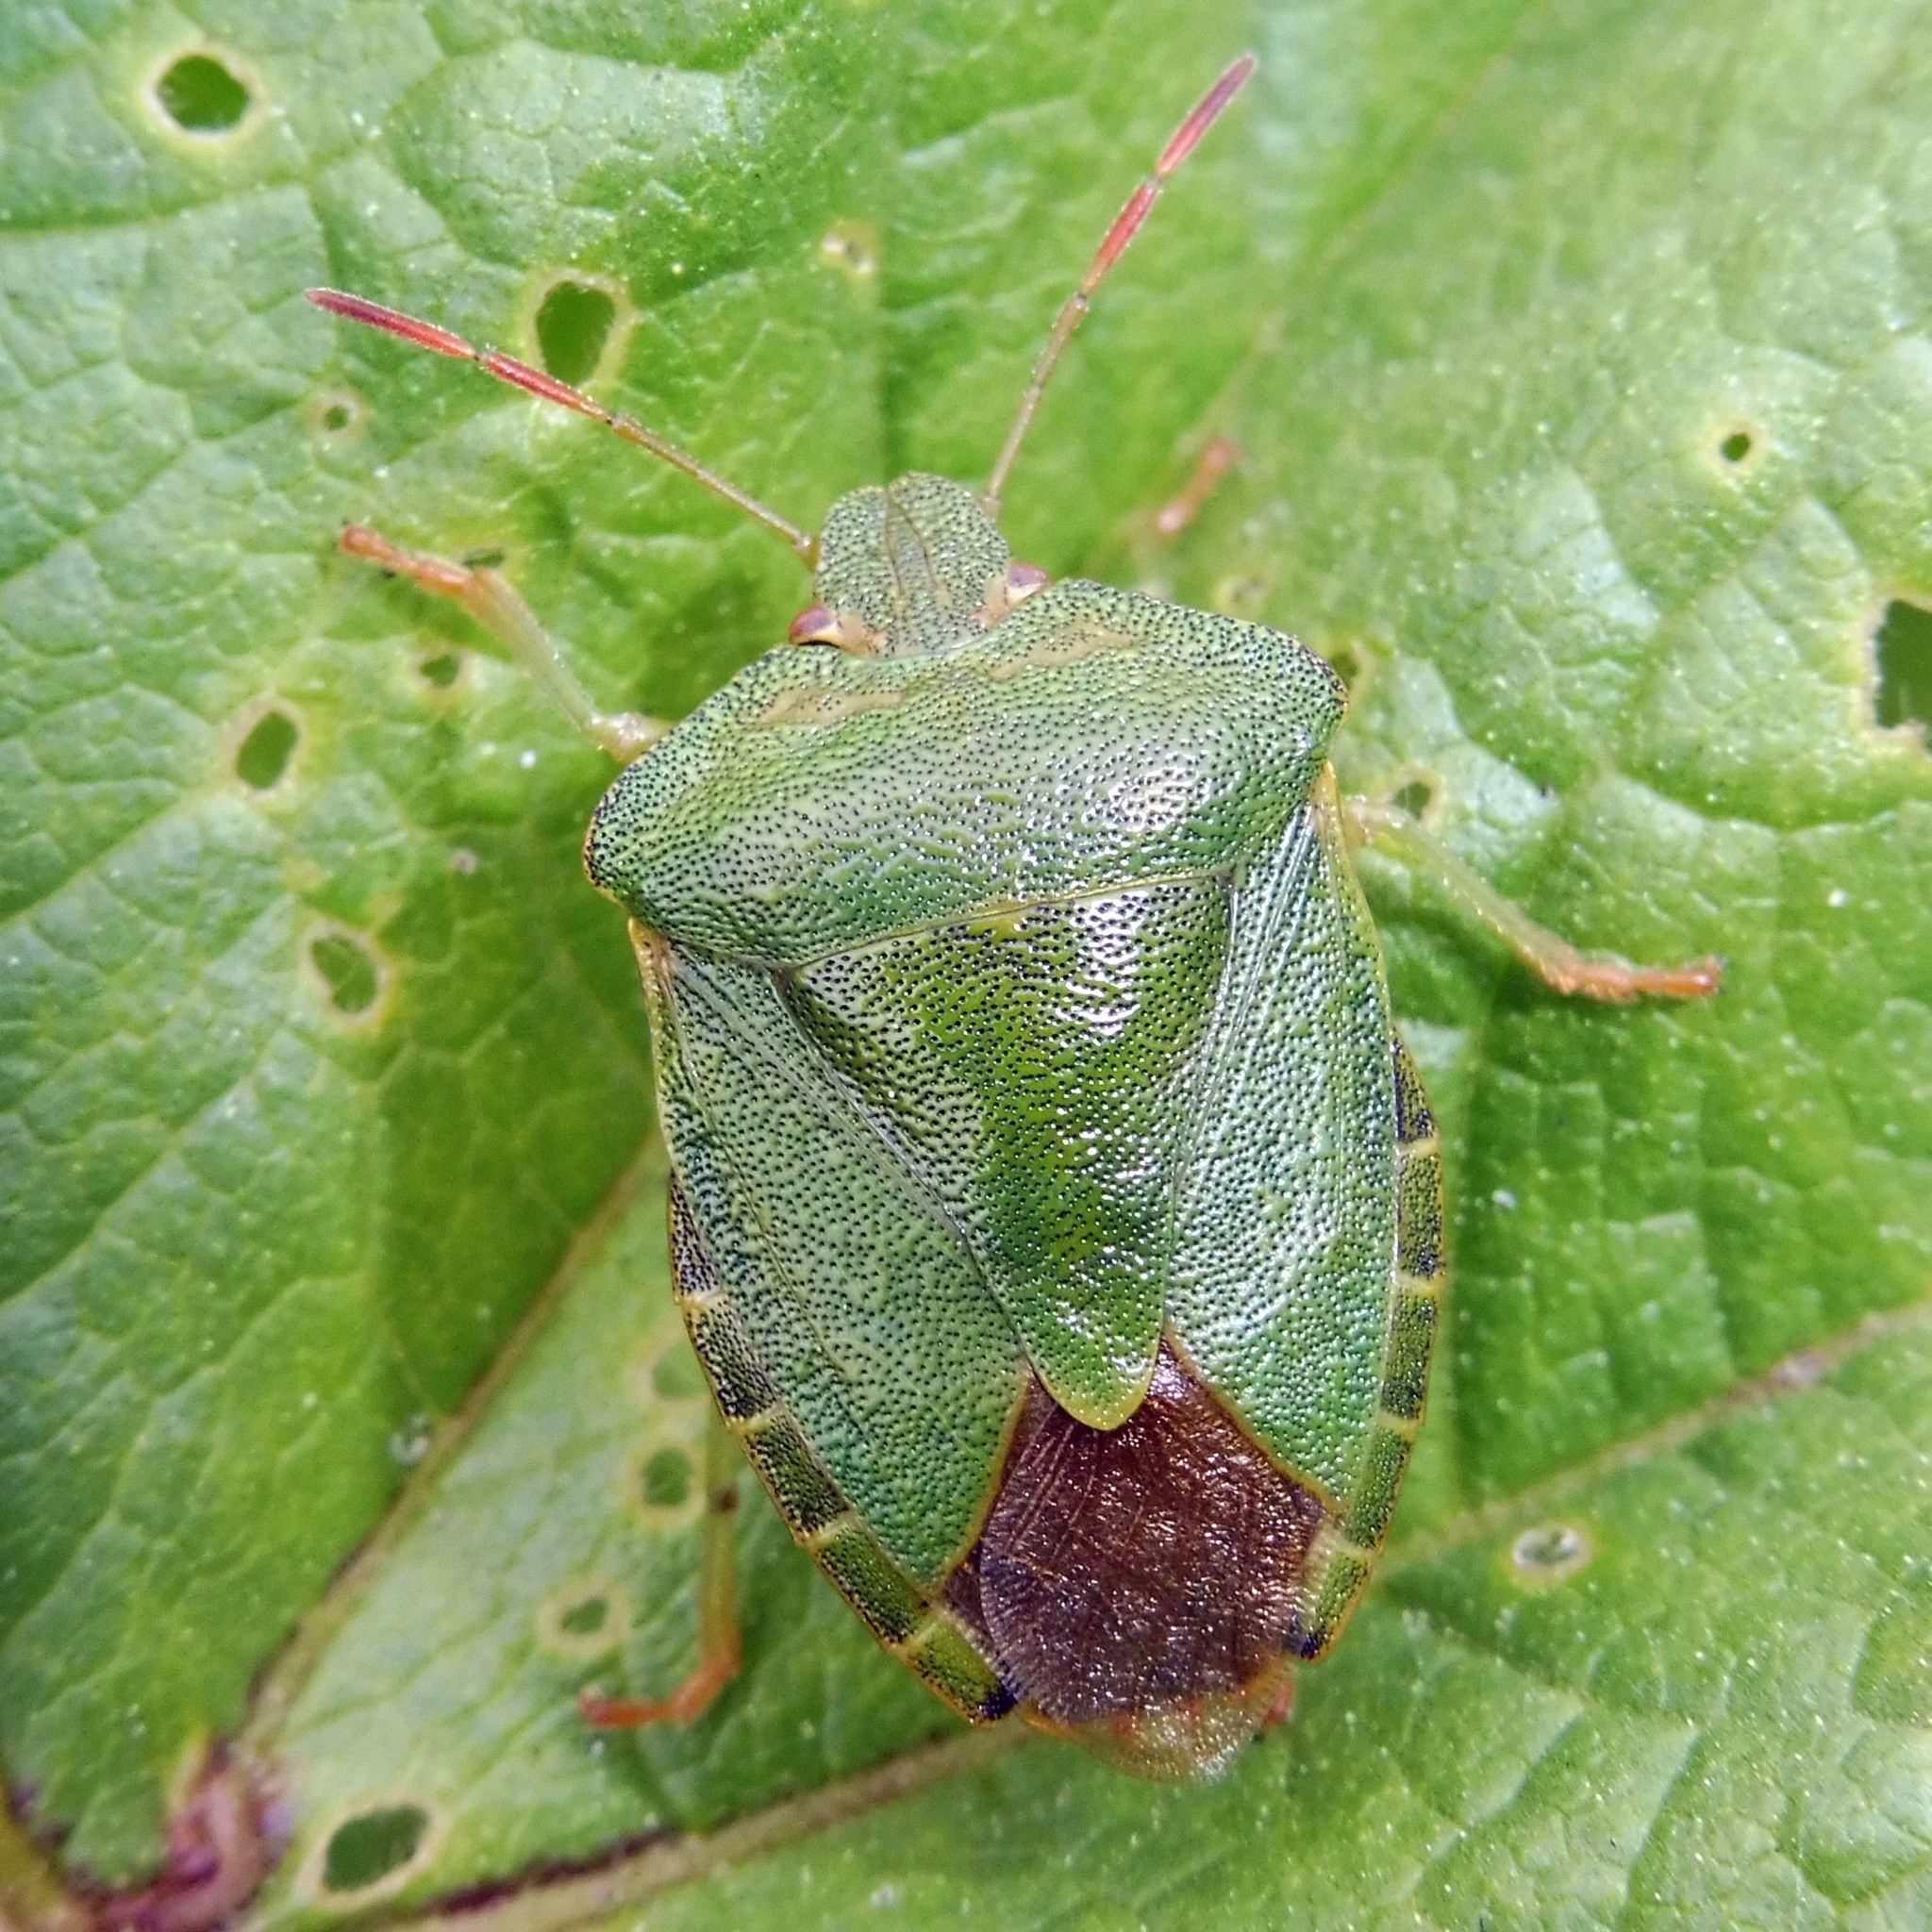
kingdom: Animalia
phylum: Arthropoda
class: Insecta
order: Hemiptera
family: Pentatomidae
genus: Palomena
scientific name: Palomena prasina
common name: Green shieldbug
